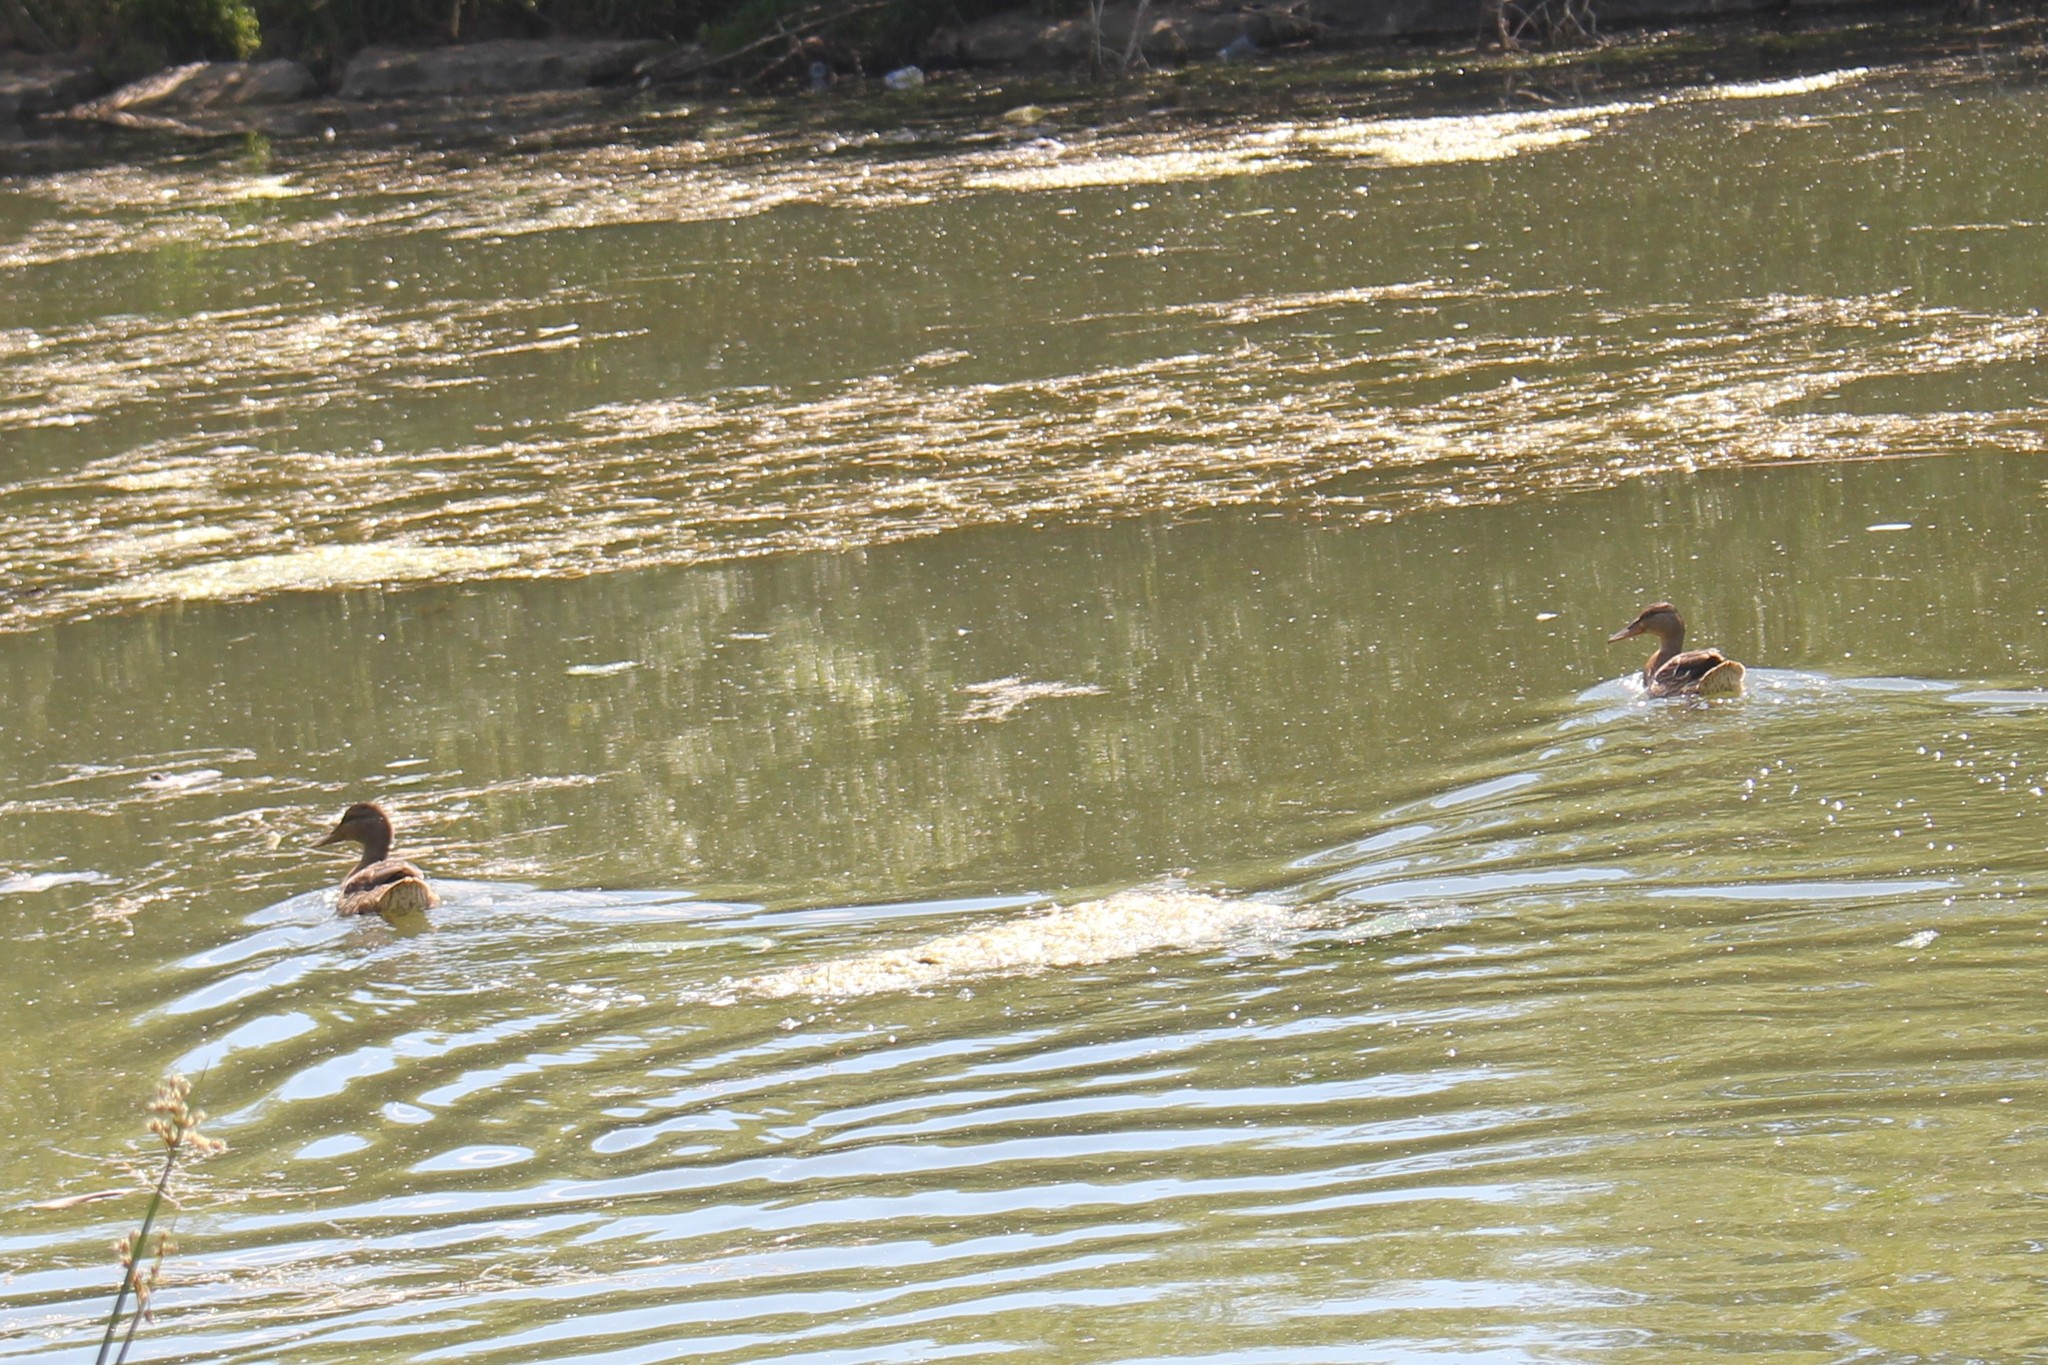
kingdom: Animalia
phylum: Chordata
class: Aves
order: Anseriformes
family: Anatidae
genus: Anas
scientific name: Anas platyrhynchos
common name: Mallard
